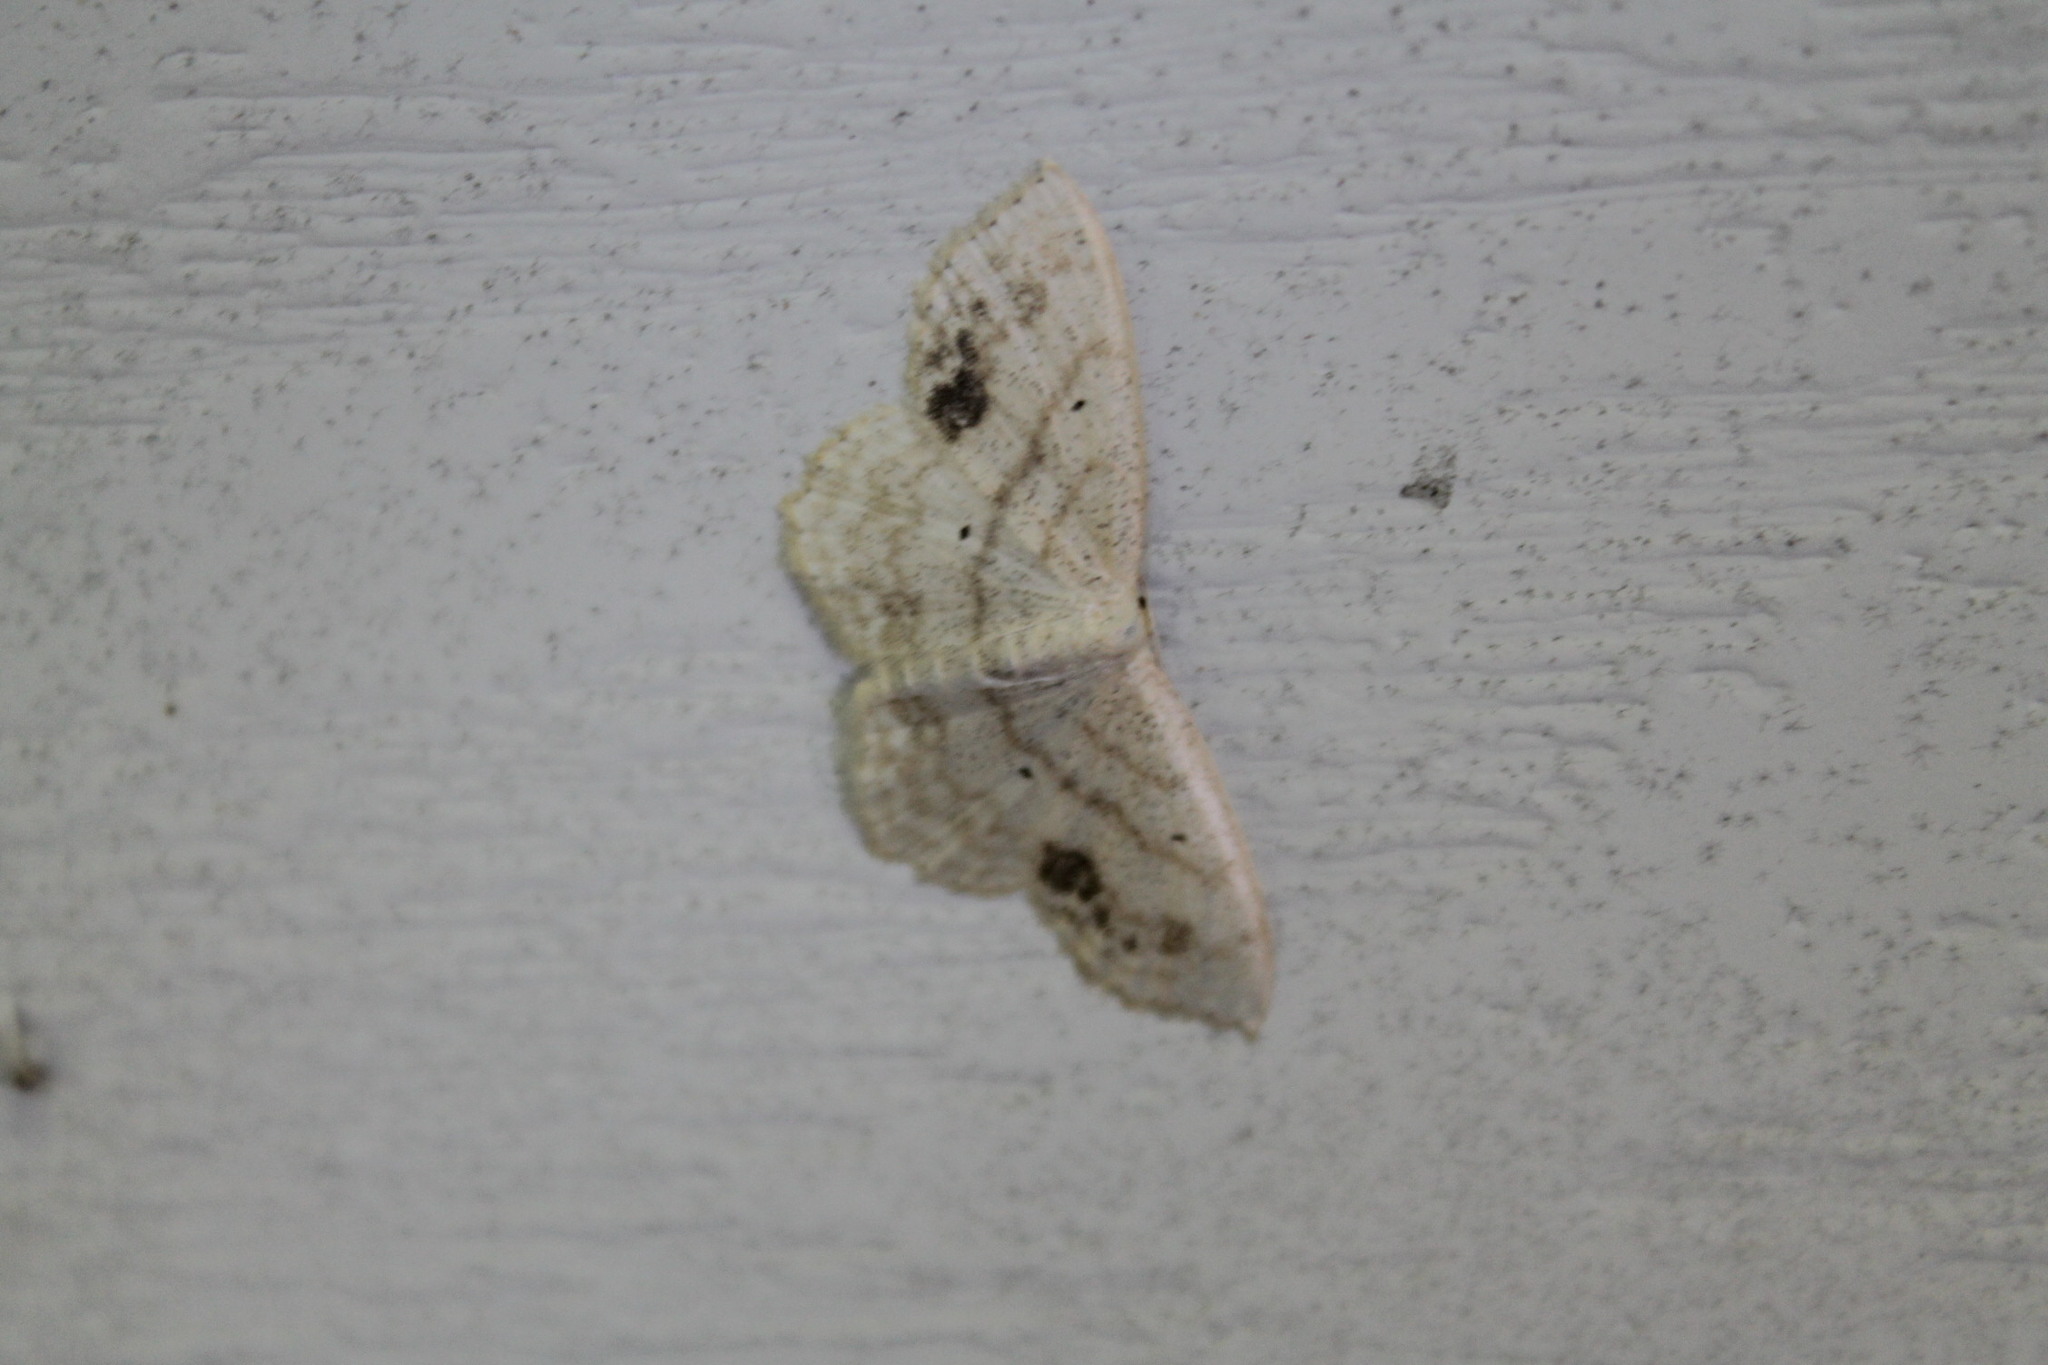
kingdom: Animalia
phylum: Arthropoda
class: Insecta
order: Lepidoptera
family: Geometridae
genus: Scopula
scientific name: Scopula limboundata
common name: Large lace border
